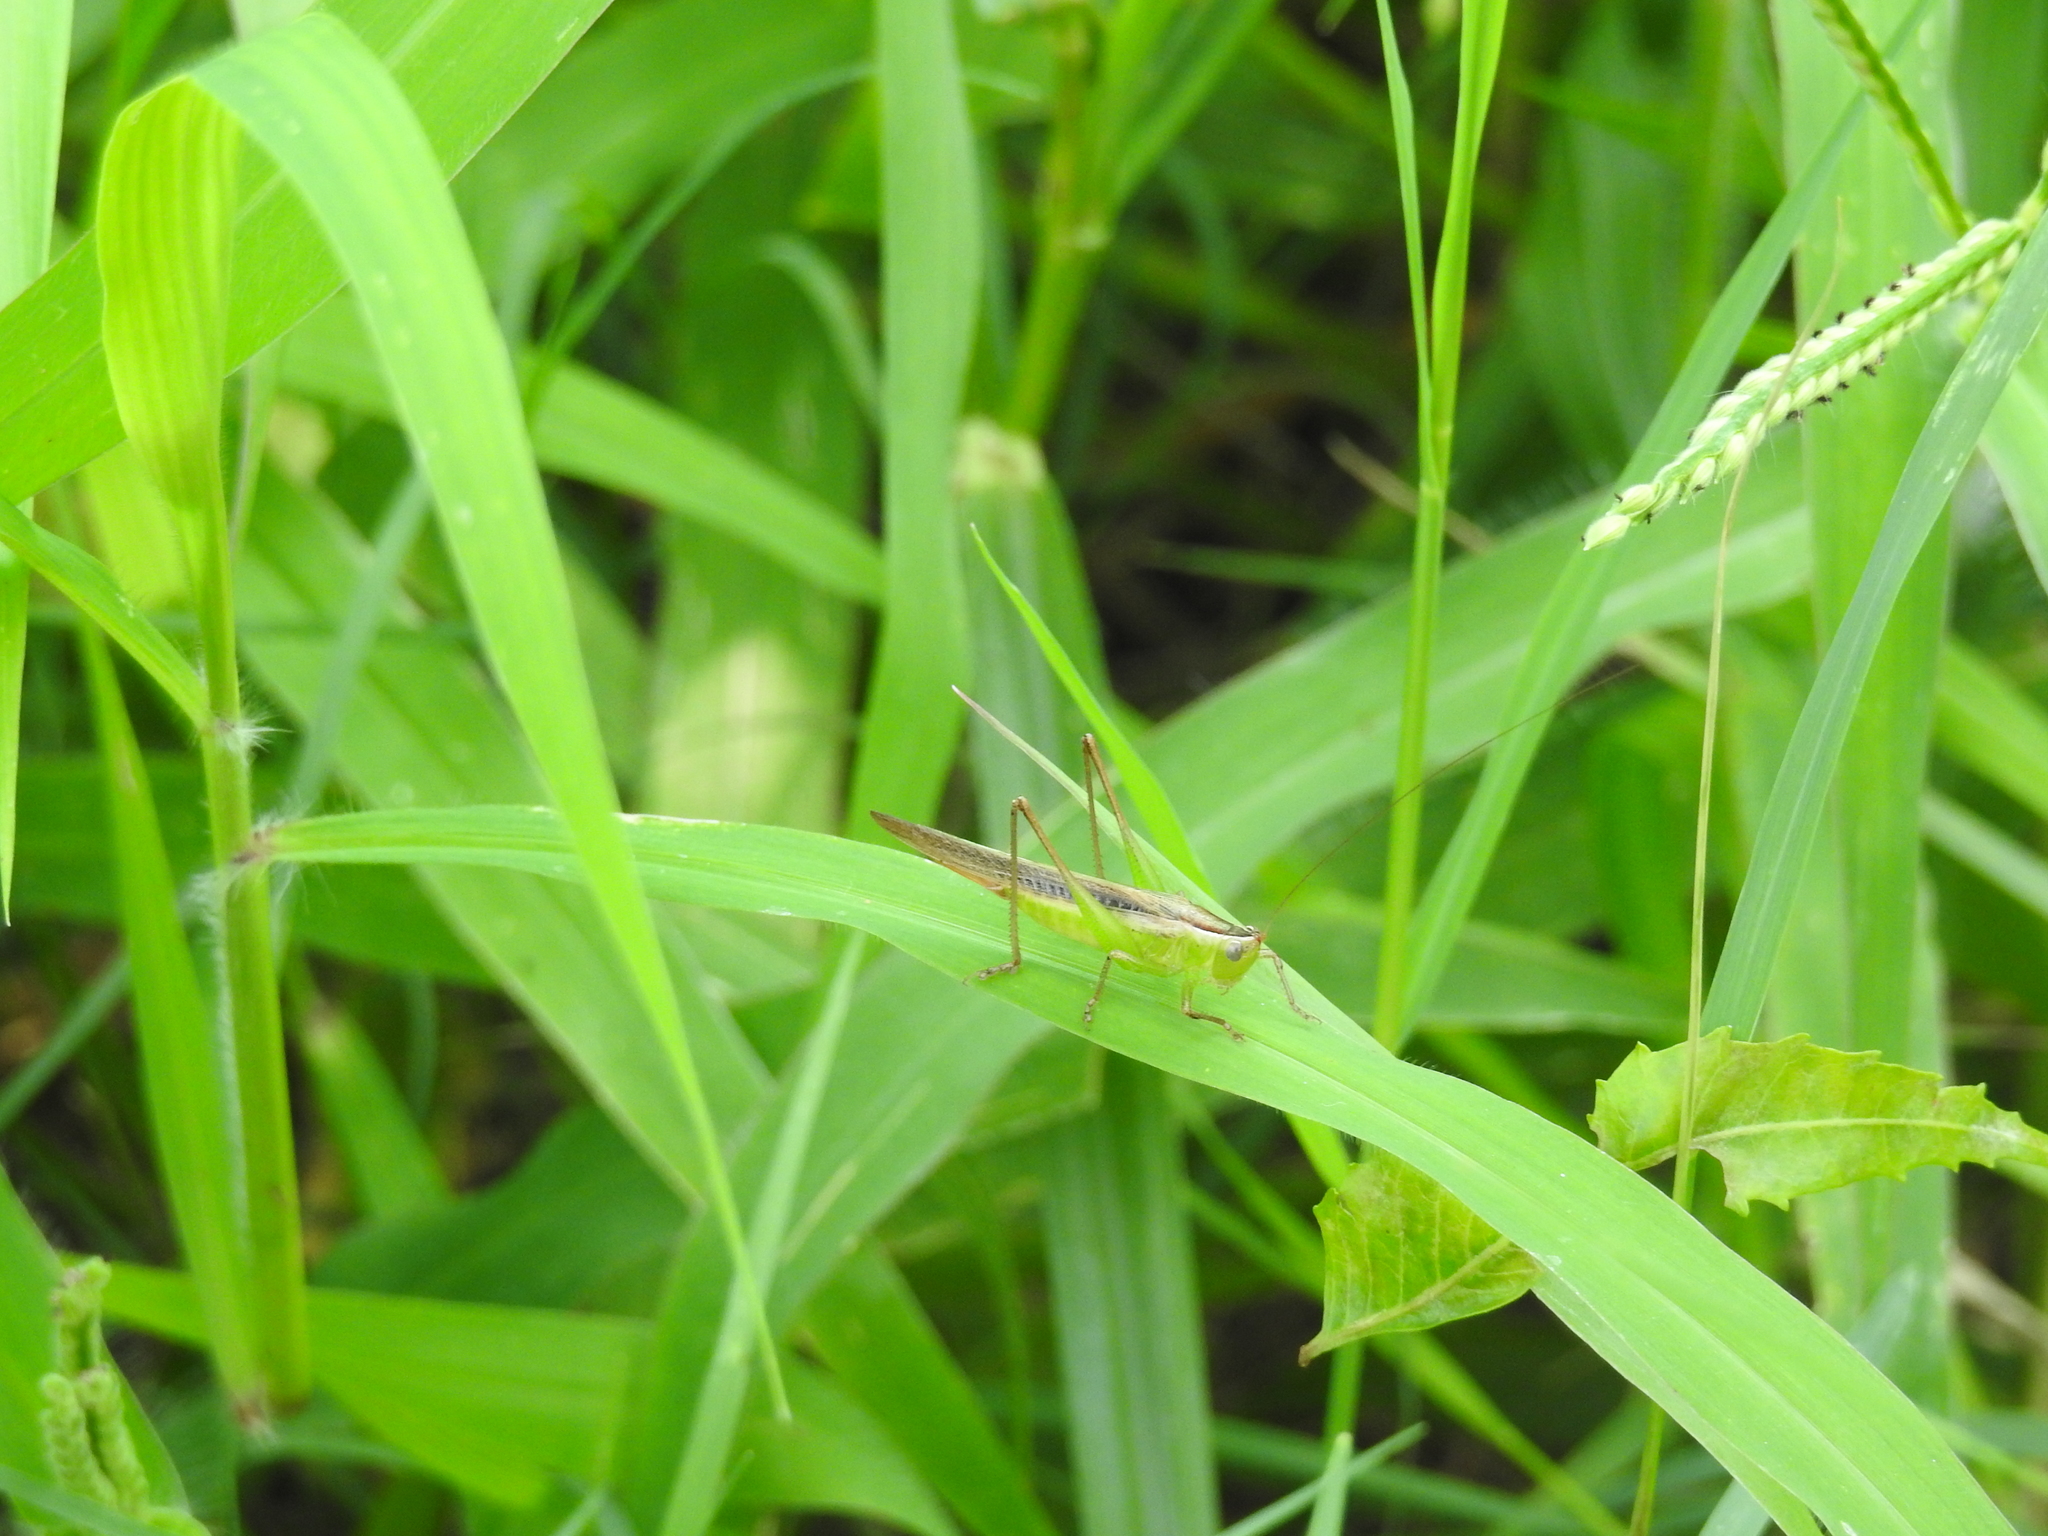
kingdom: Animalia
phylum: Arthropoda
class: Insecta
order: Orthoptera
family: Tettigoniidae
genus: Conocephalus
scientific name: Conocephalus maculatus
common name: Spotted meadow katydid
